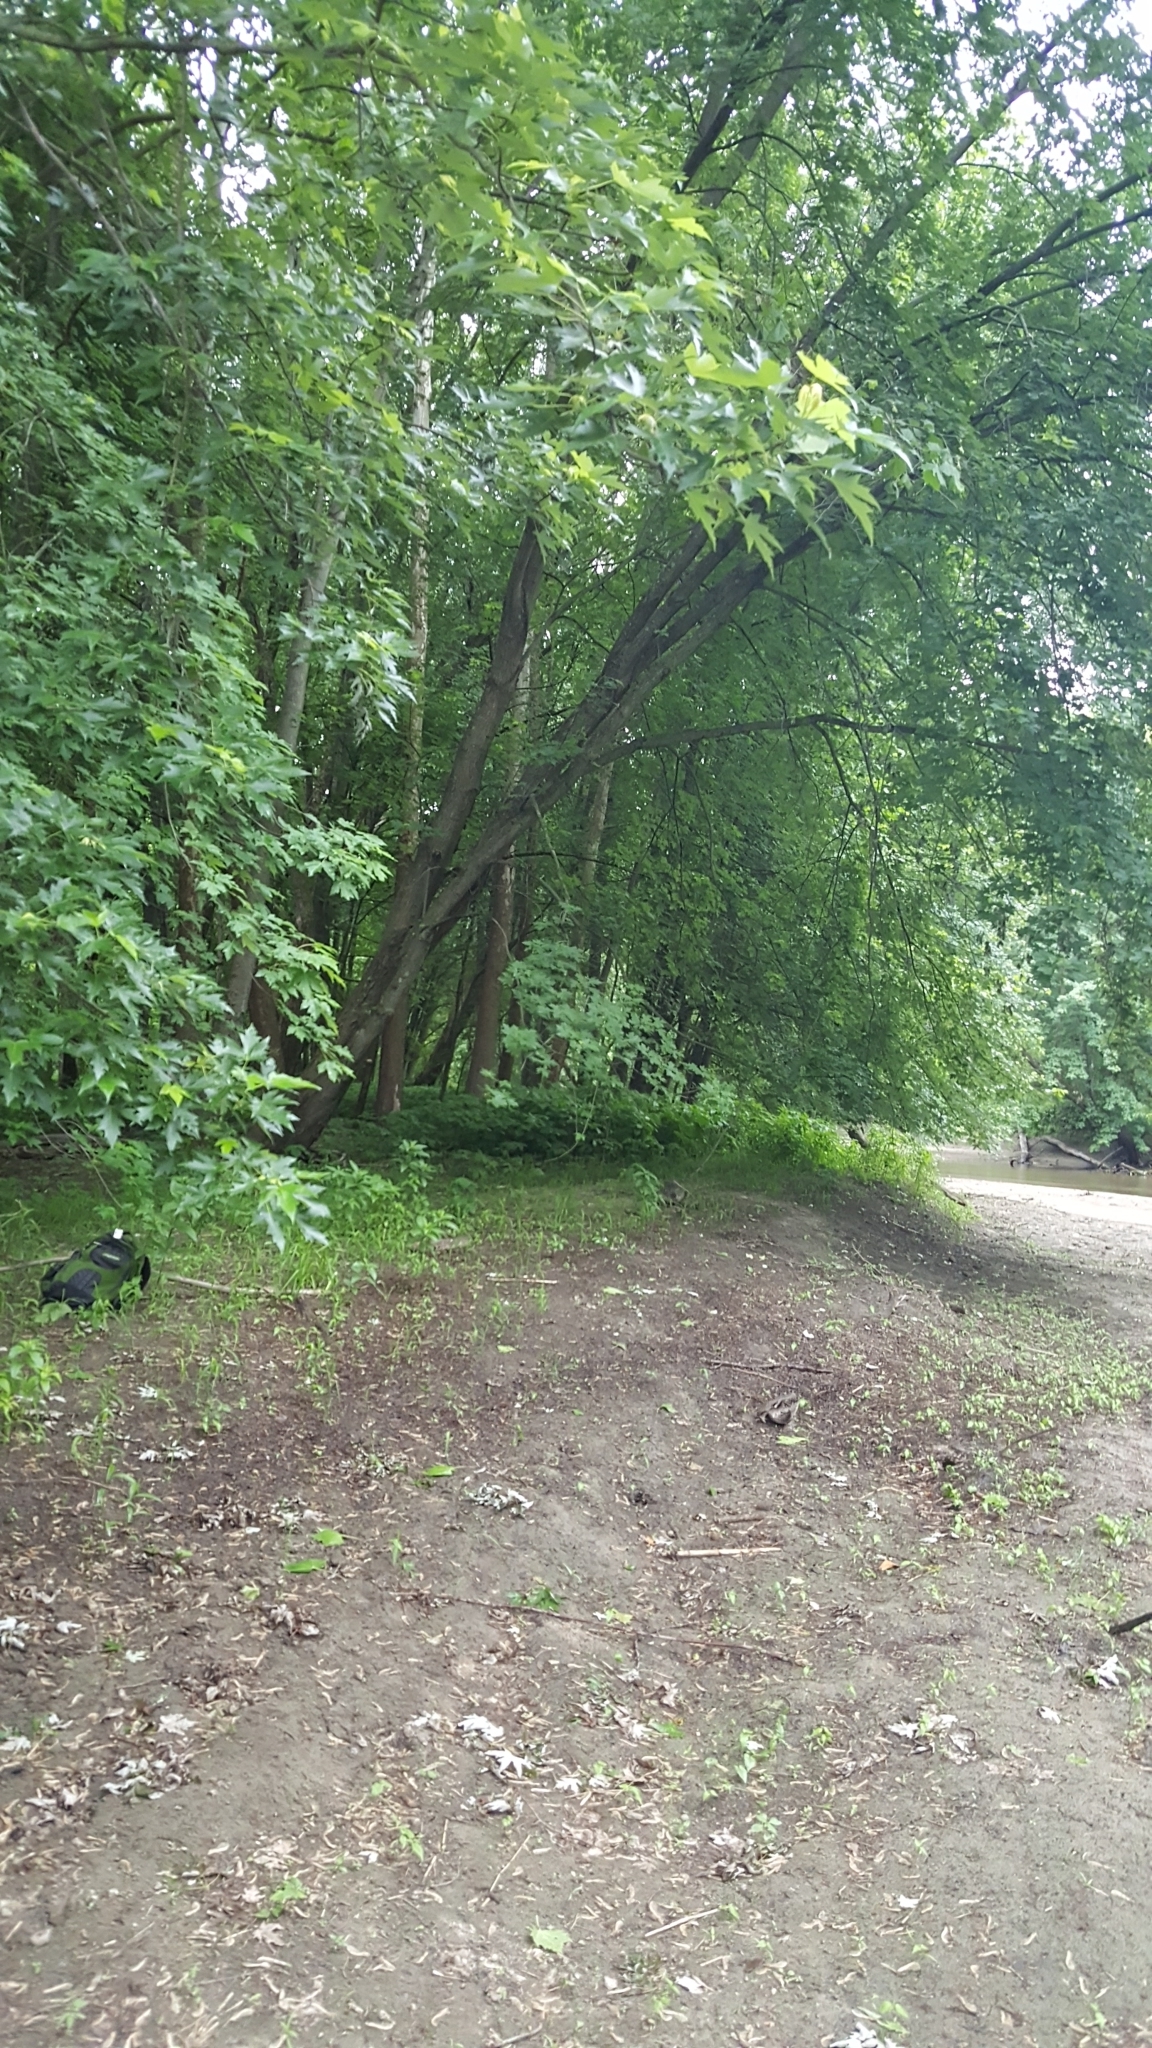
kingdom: Plantae
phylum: Tracheophyta
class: Magnoliopsida
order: Sapindales
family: Sapindaceae
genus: Acer
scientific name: Acer saccharinum
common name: Silver maple
